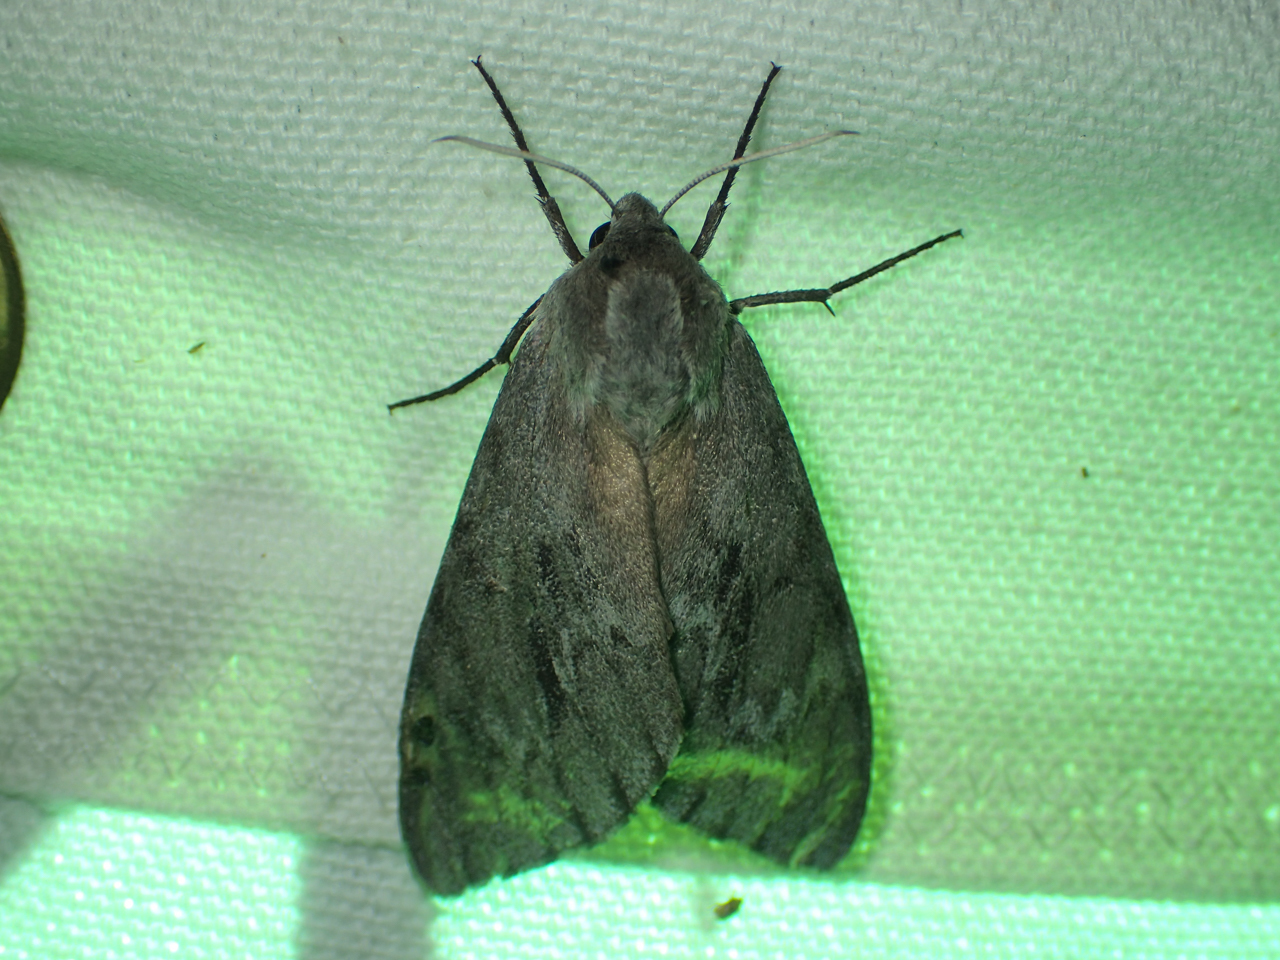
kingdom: Animalia
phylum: Arthropoda
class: Insecta
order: Lepidoptera
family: Sphingidae
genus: Lapara
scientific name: Lapara coniferarum
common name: Southern pine sphinx
